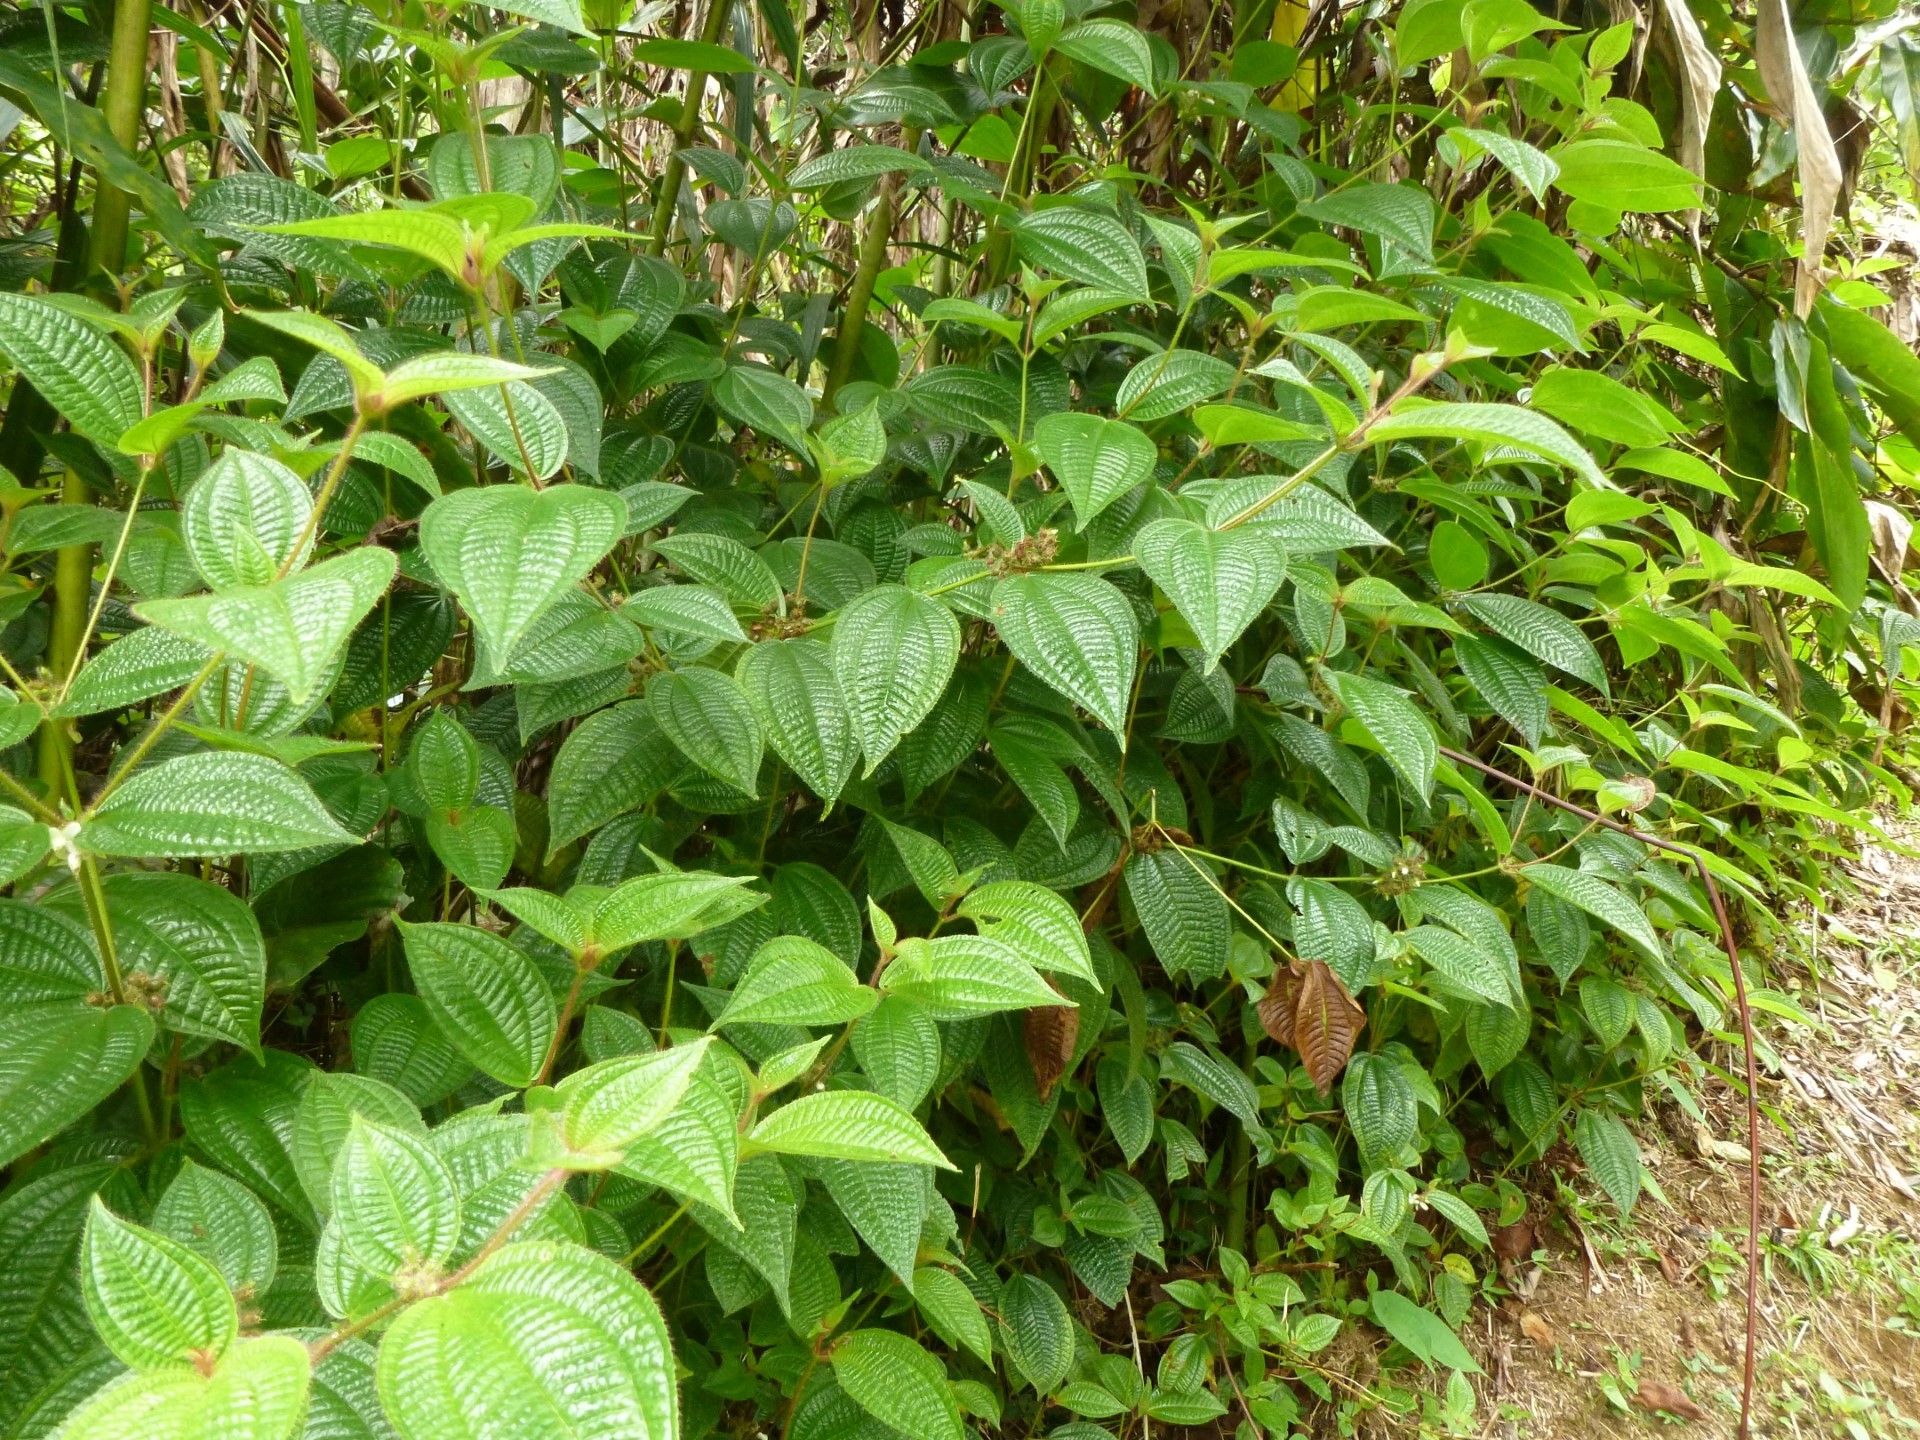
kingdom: Plantae
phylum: Tracheophyta
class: Magnoliopsida
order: Myrtales
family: Melastomataceae
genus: Miconia
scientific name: Miconia crenata
